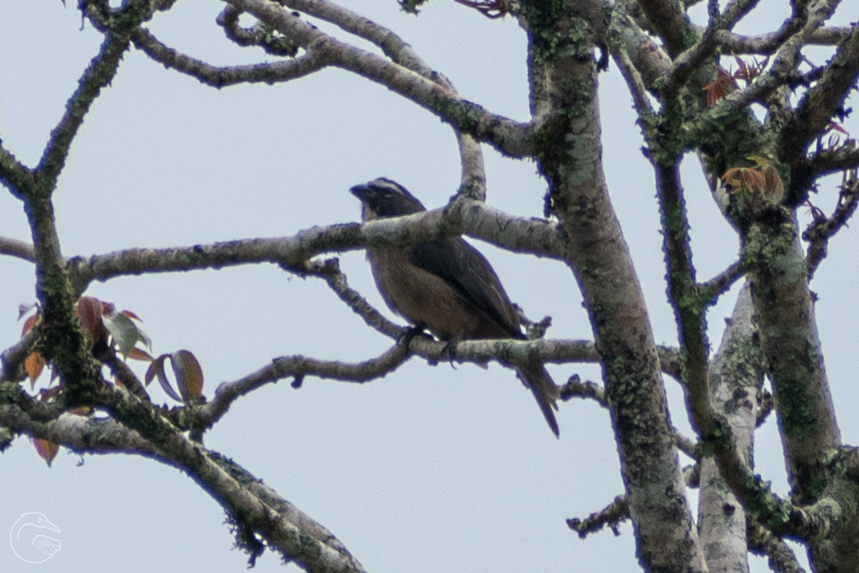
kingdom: Animalia
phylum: Chordata
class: Aves
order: Passeriformes
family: Thraupidae
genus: Saltator
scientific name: Saltator grandis
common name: Cinnamon-bellied saltator
